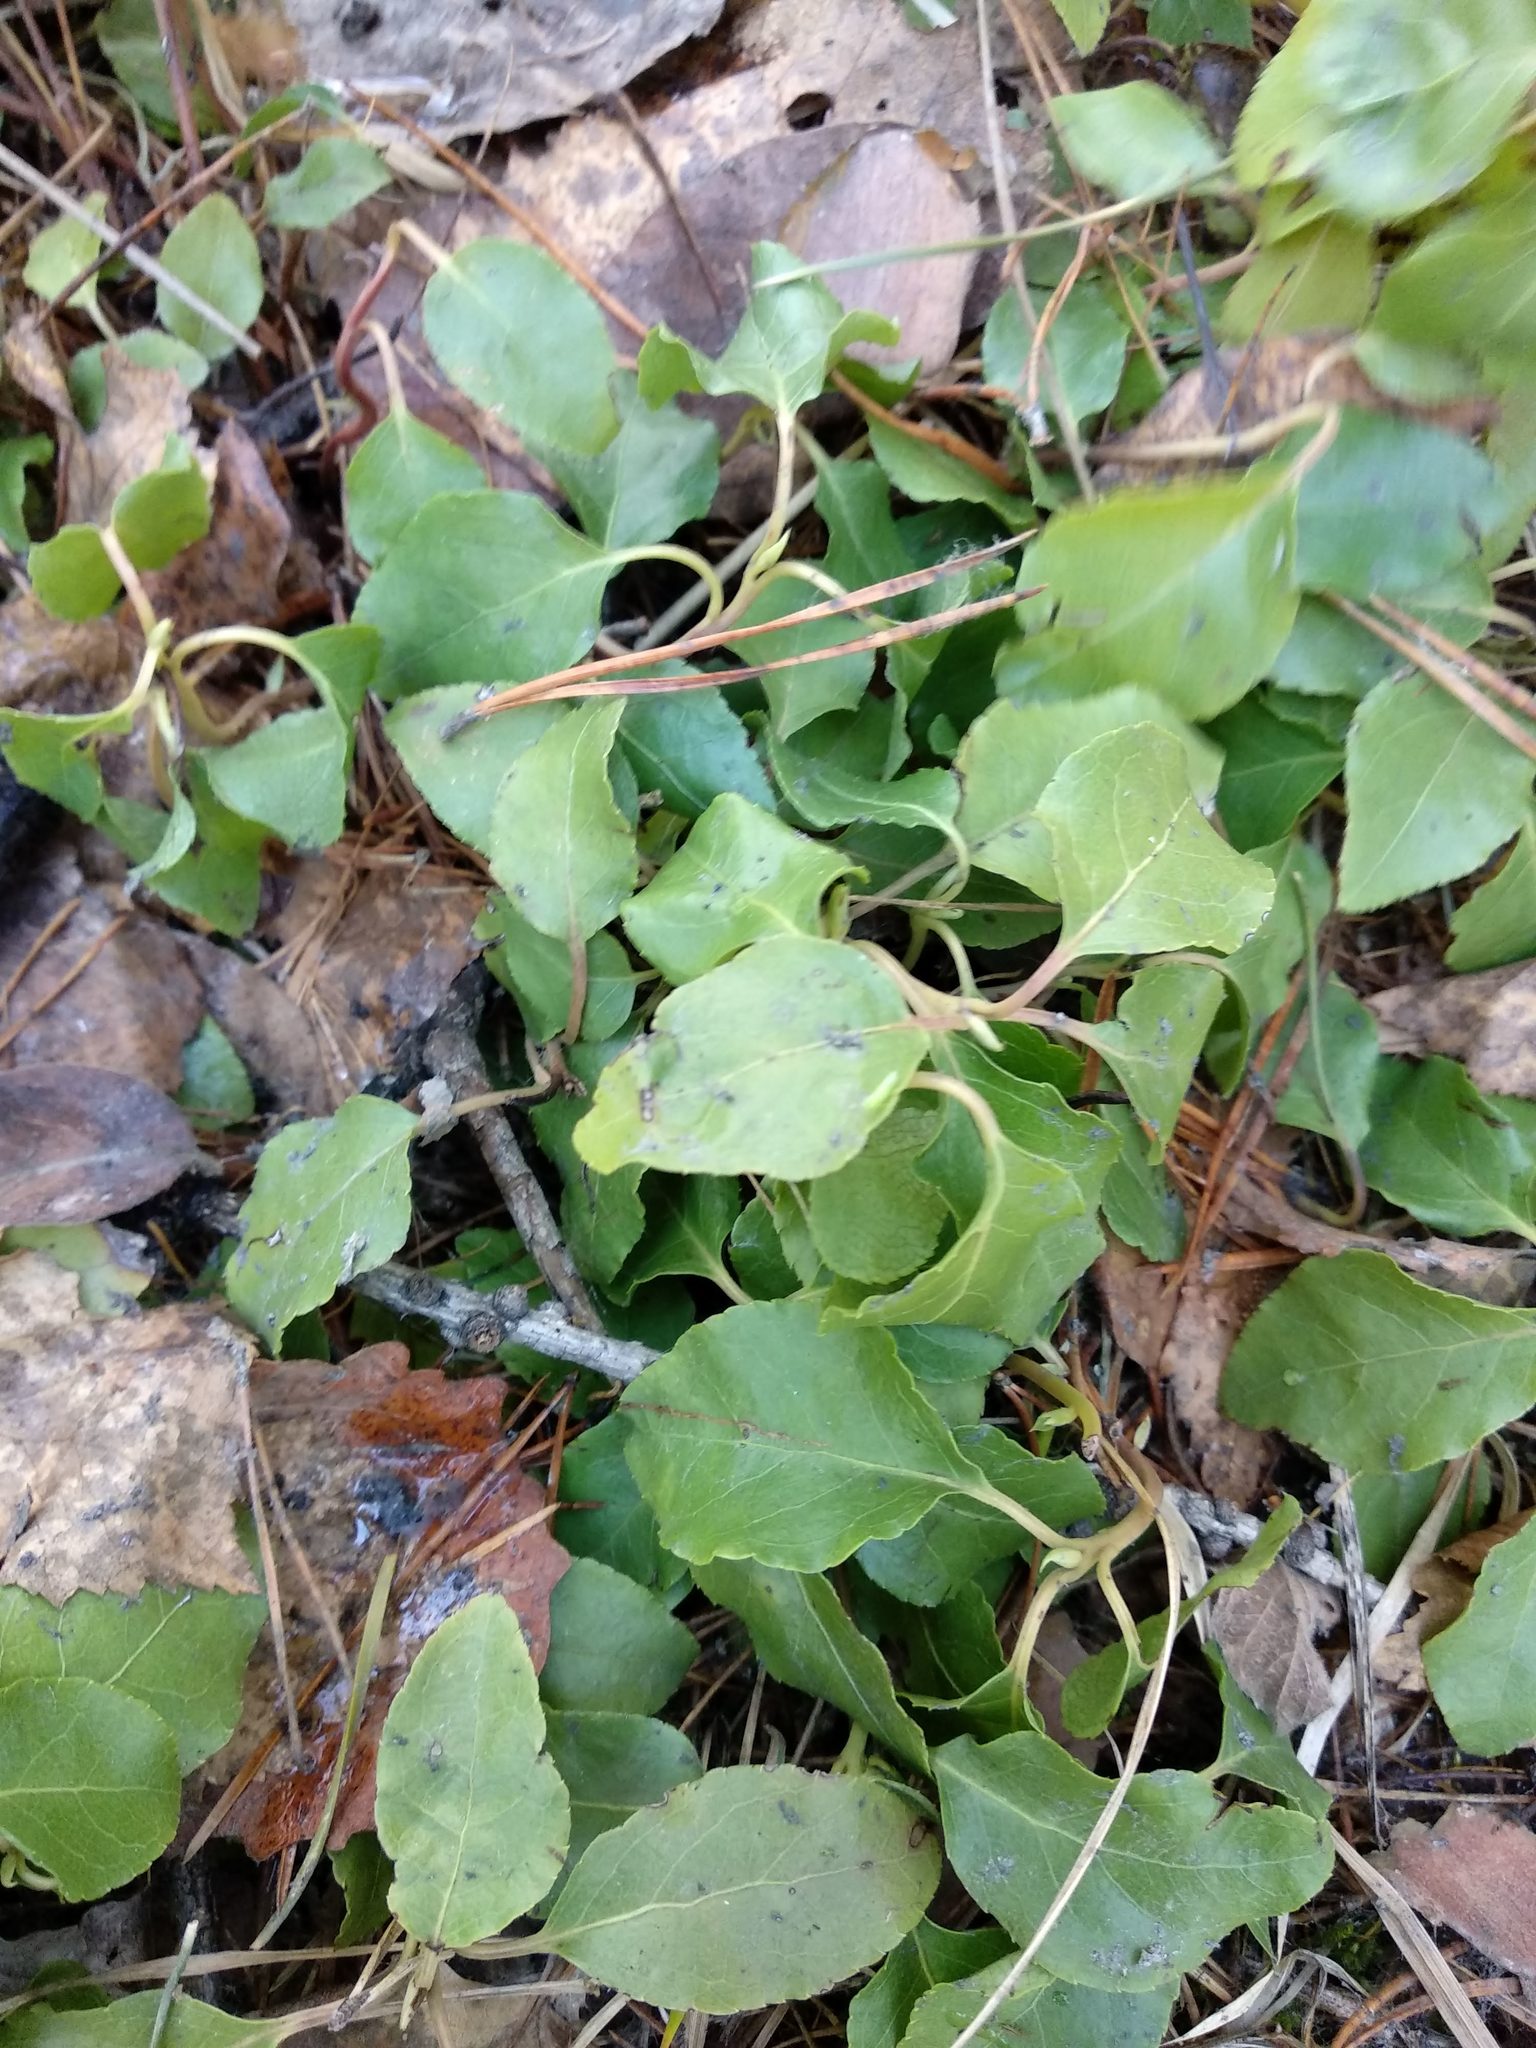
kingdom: Plantae
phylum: Tracheophyta
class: Magnoliopsida
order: Ericales
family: Ericaceae
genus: Orthilia
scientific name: Orthilia secunda
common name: One-sided orthilia
